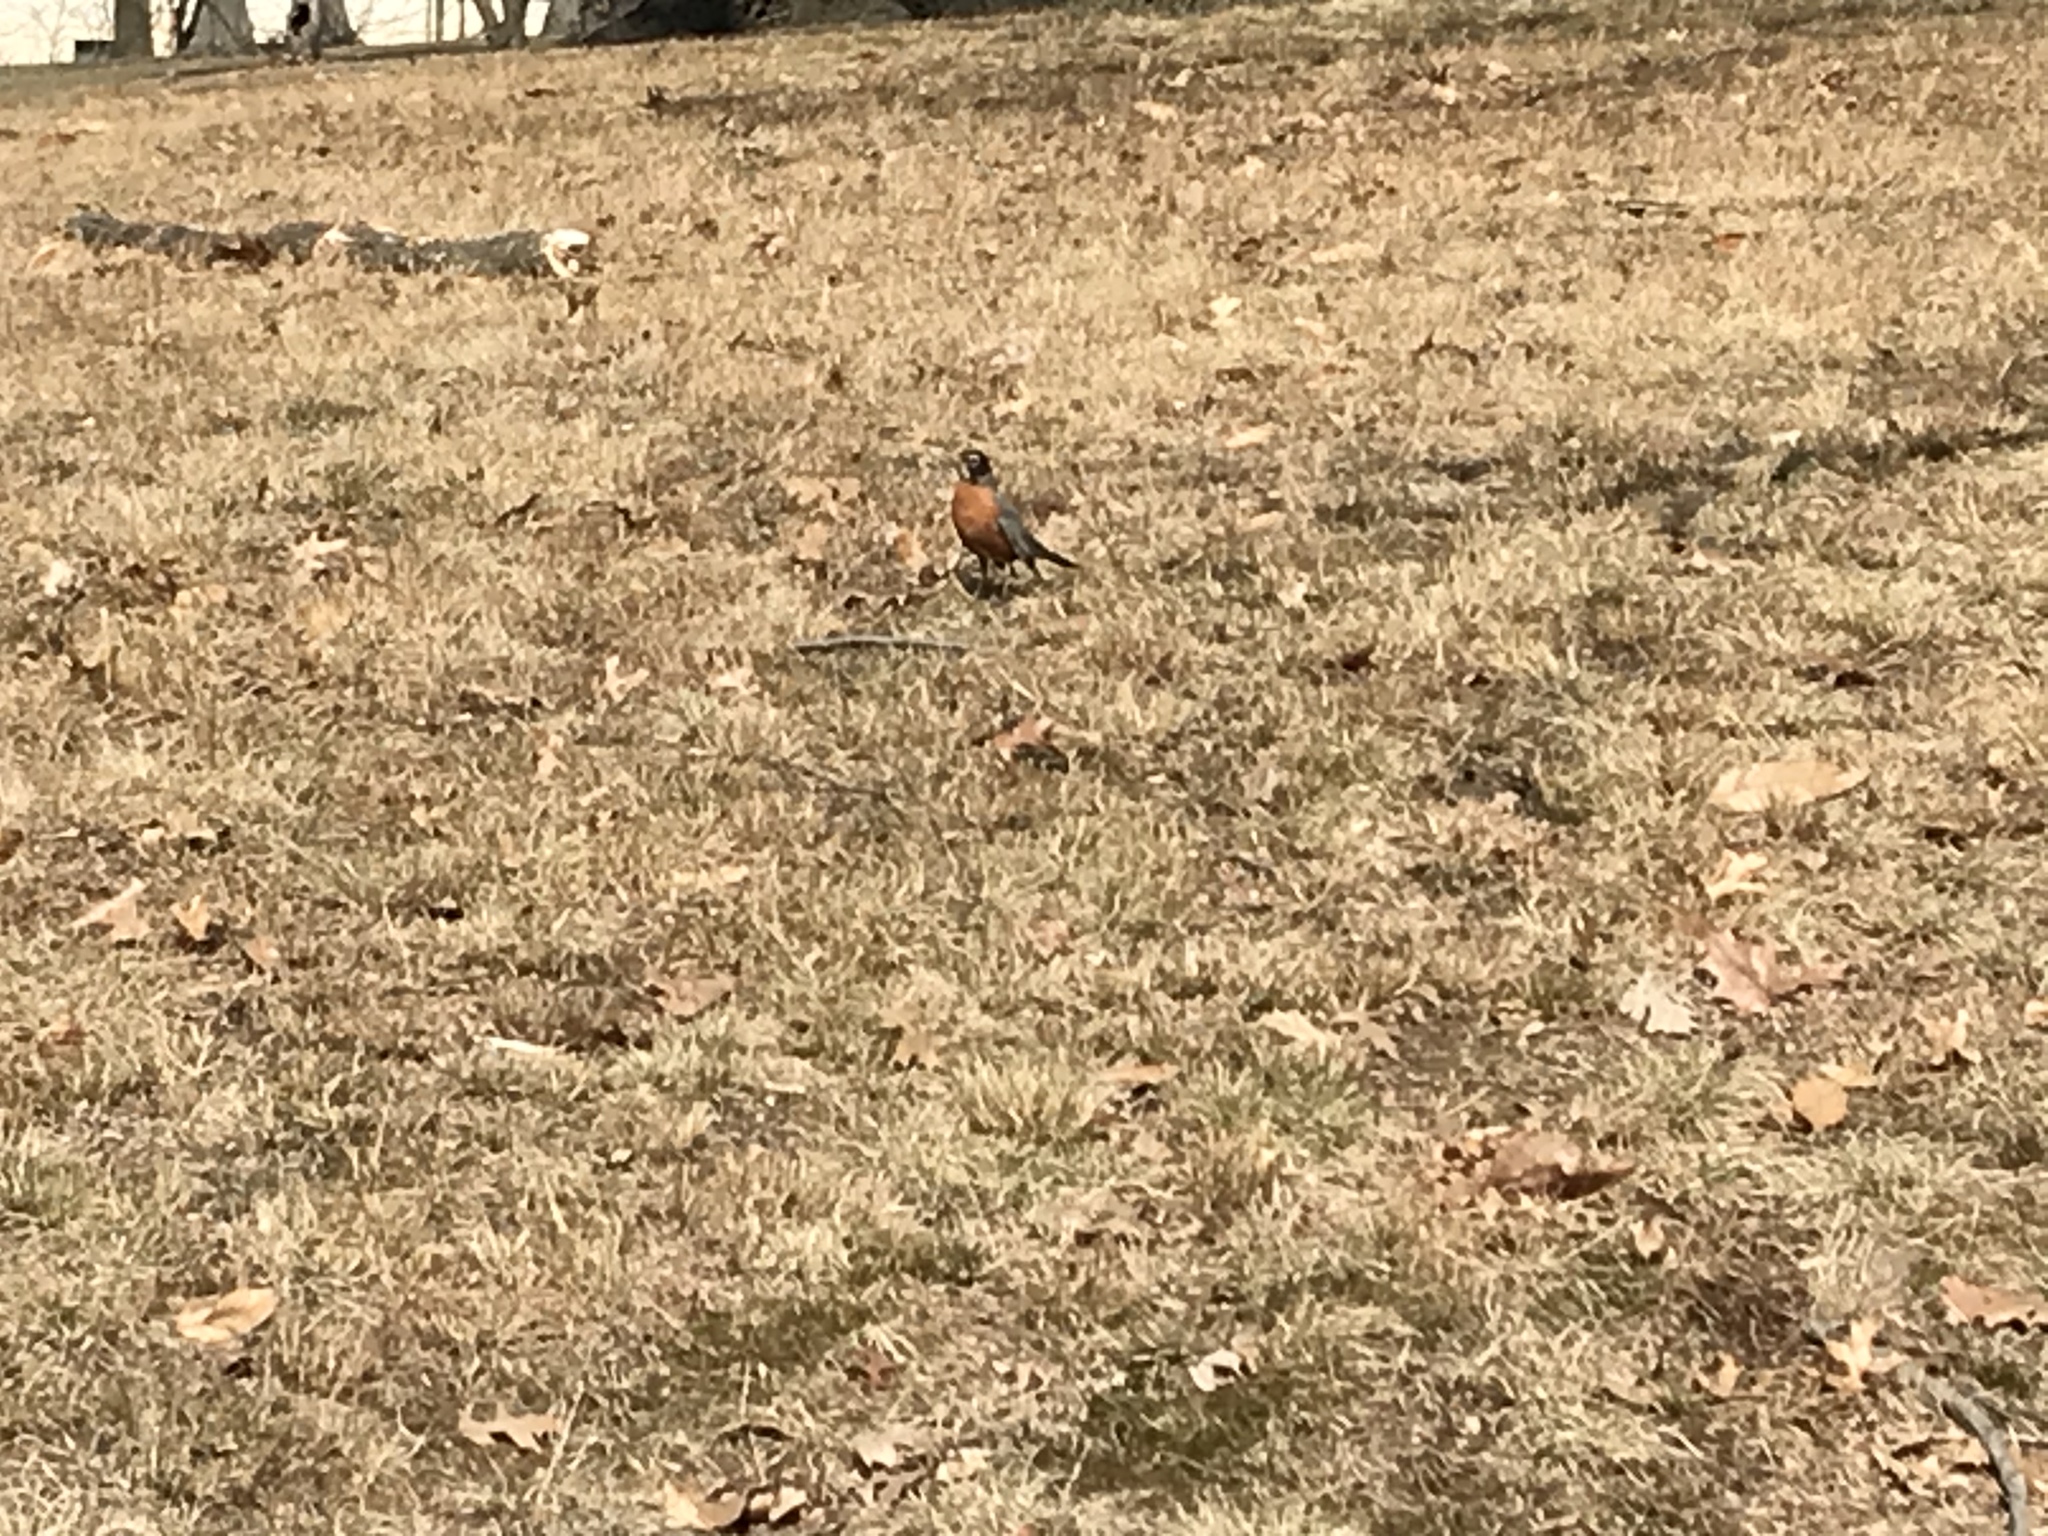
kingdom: Animalia
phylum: Chordata
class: Aves
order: Passeriformes
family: Turdidae
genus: Turdus
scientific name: Turdus migratorius
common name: American robin
